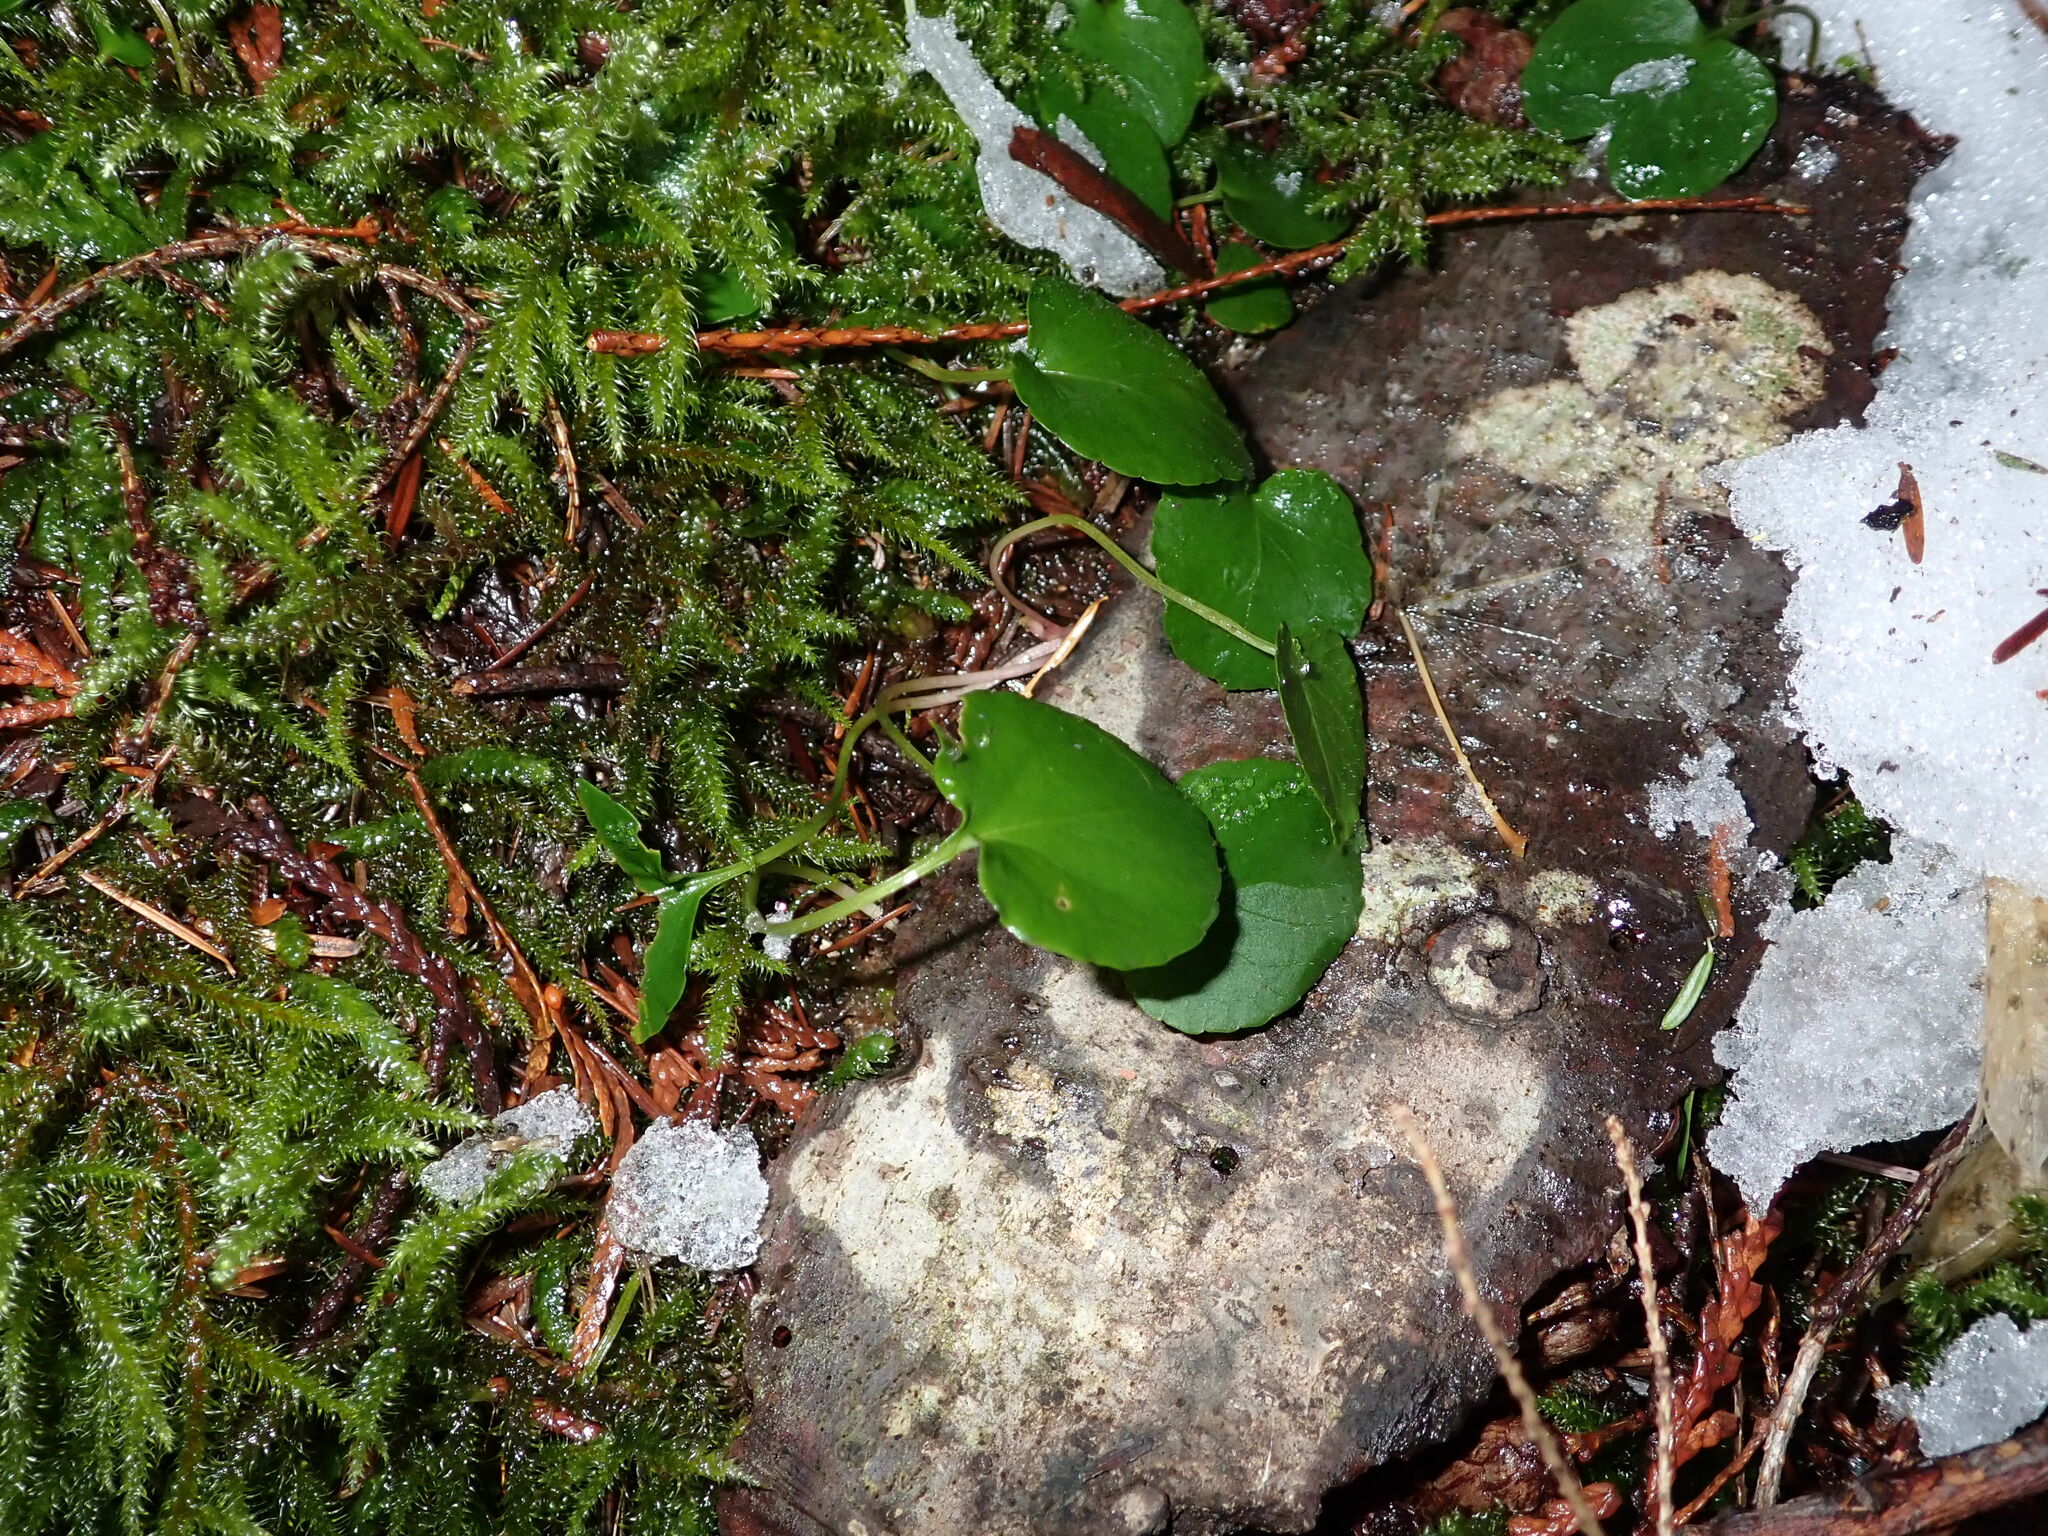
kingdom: Plantae
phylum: Tracheophyta
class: Magnoliopsida
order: Malpighiales
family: Violaceae
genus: Viola
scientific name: Viola sempervirens
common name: Evergreen violet
